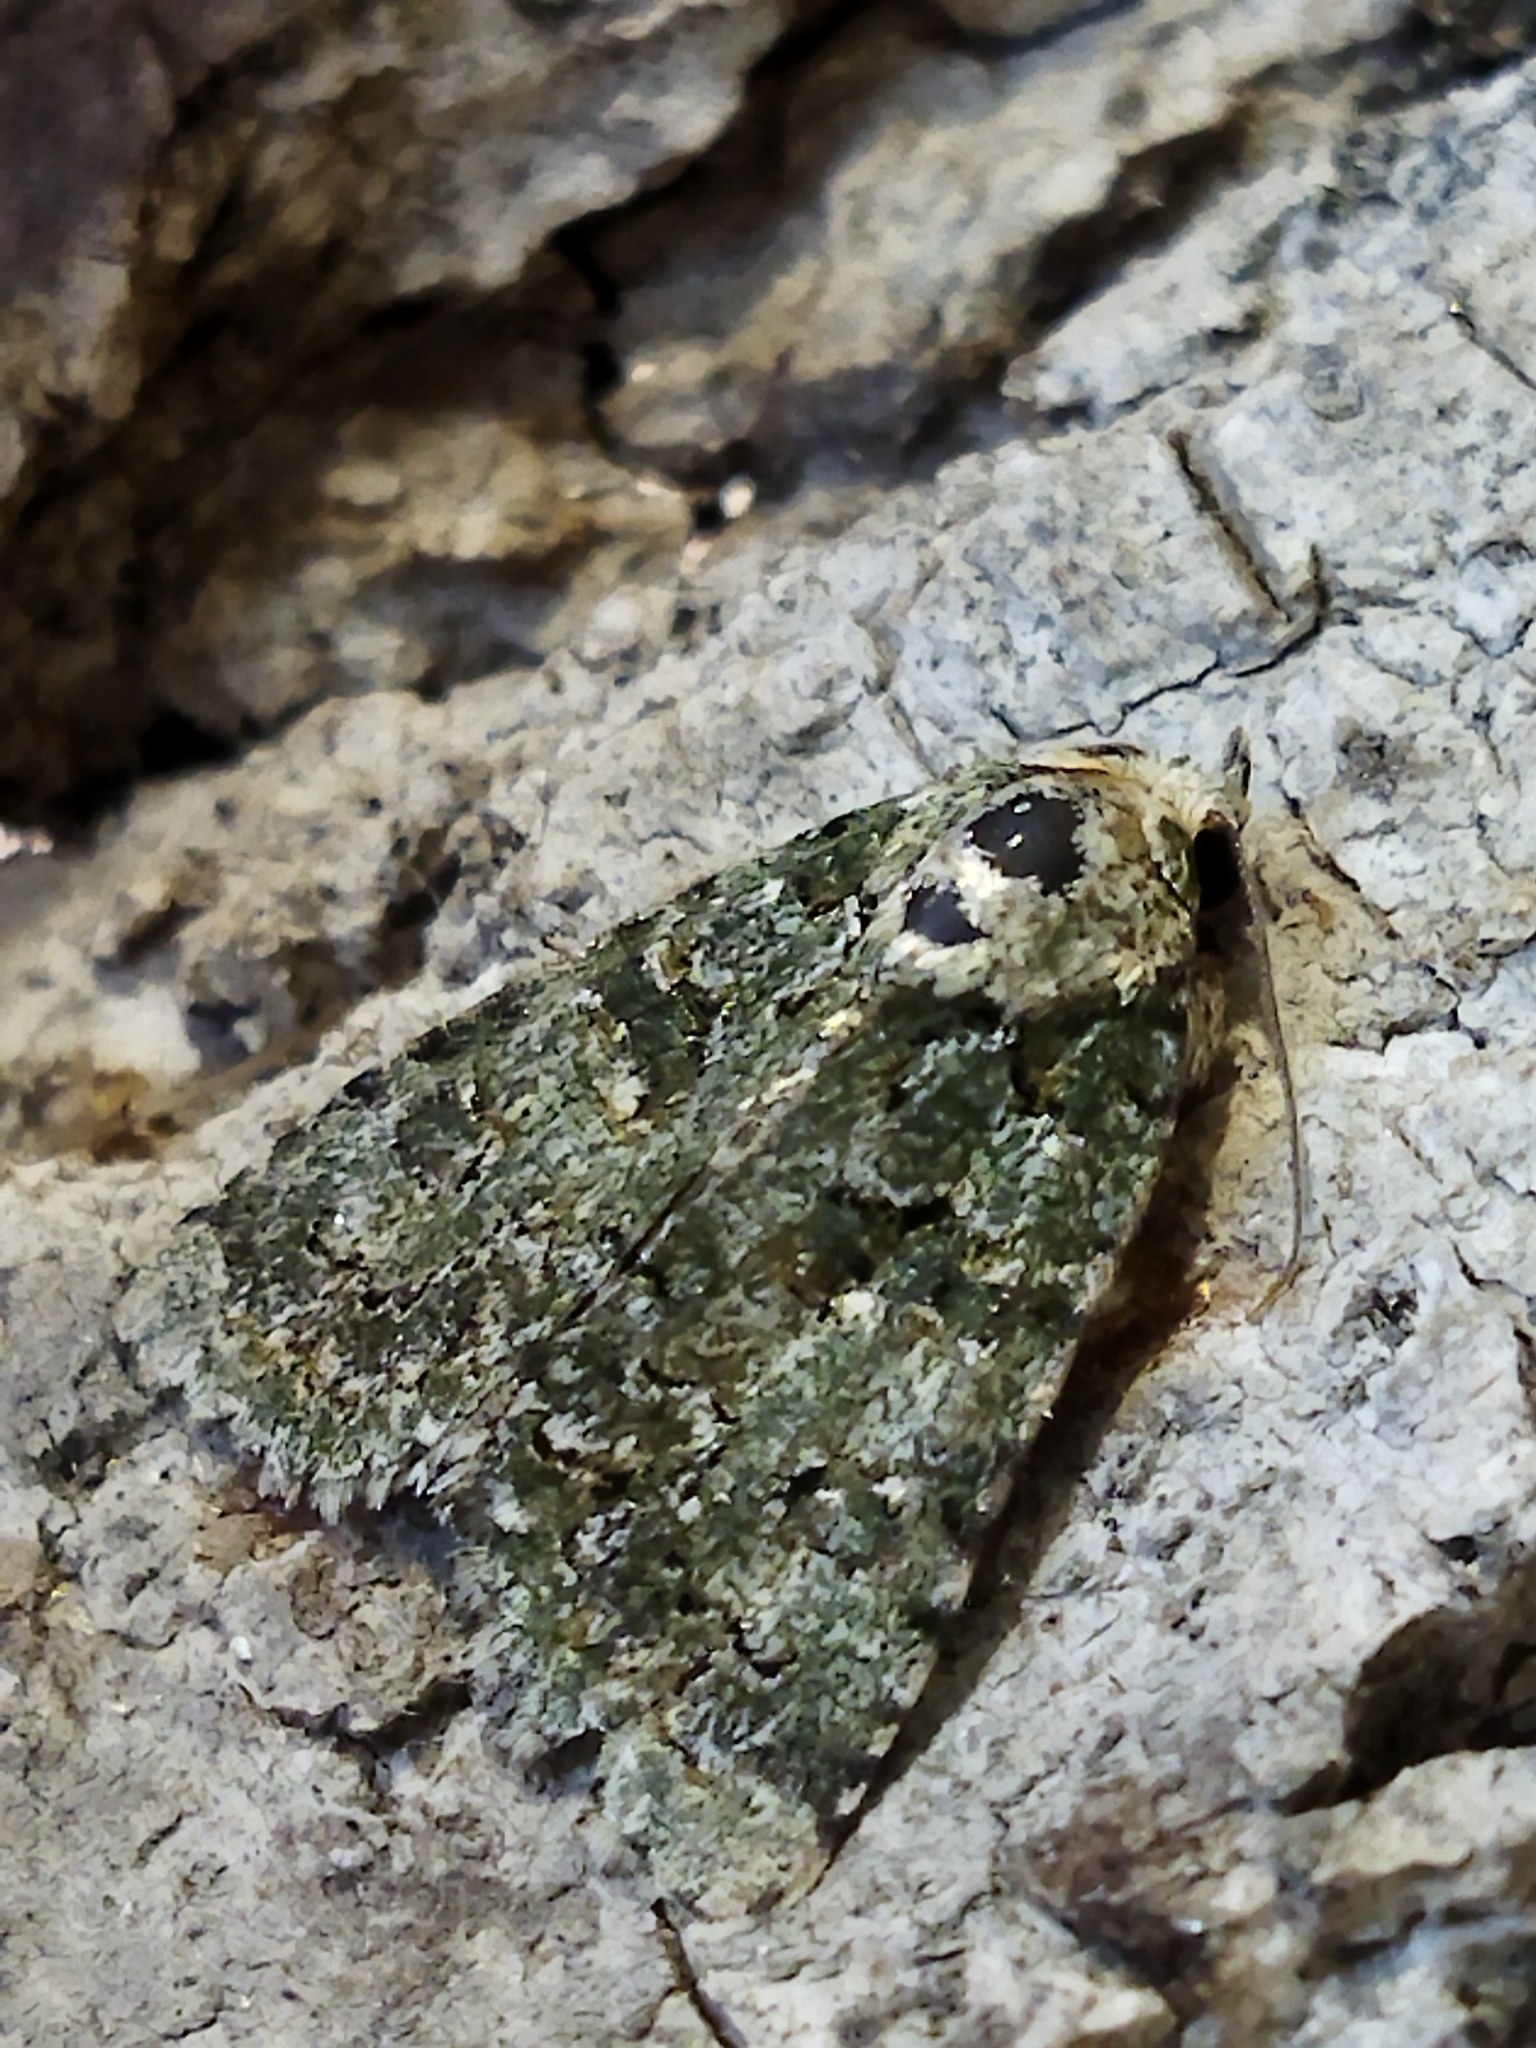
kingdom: Plantae
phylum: Chlorophyta
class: Ulvophyceae
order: Bryopsidales
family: Bryopsidaceae
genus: Bryopsis
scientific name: Bryopsis
